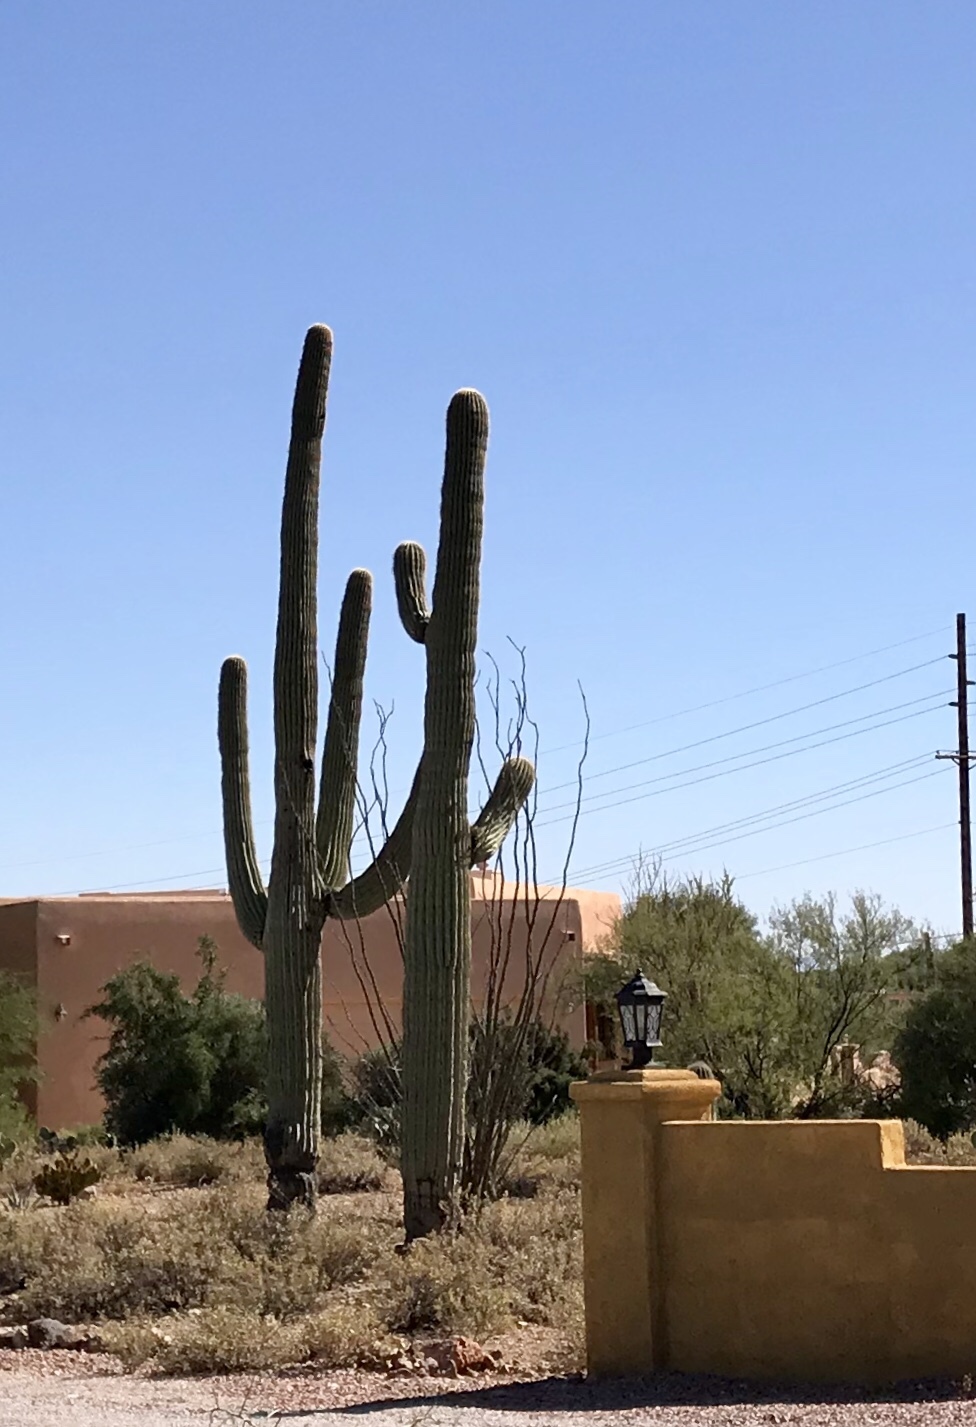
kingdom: Plantae
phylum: Tracheophyta
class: Magnoliopsida
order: Caryophyllales
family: Cactaceae
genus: Carnegiea
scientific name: Carnegiea gigantea
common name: Saguaro
